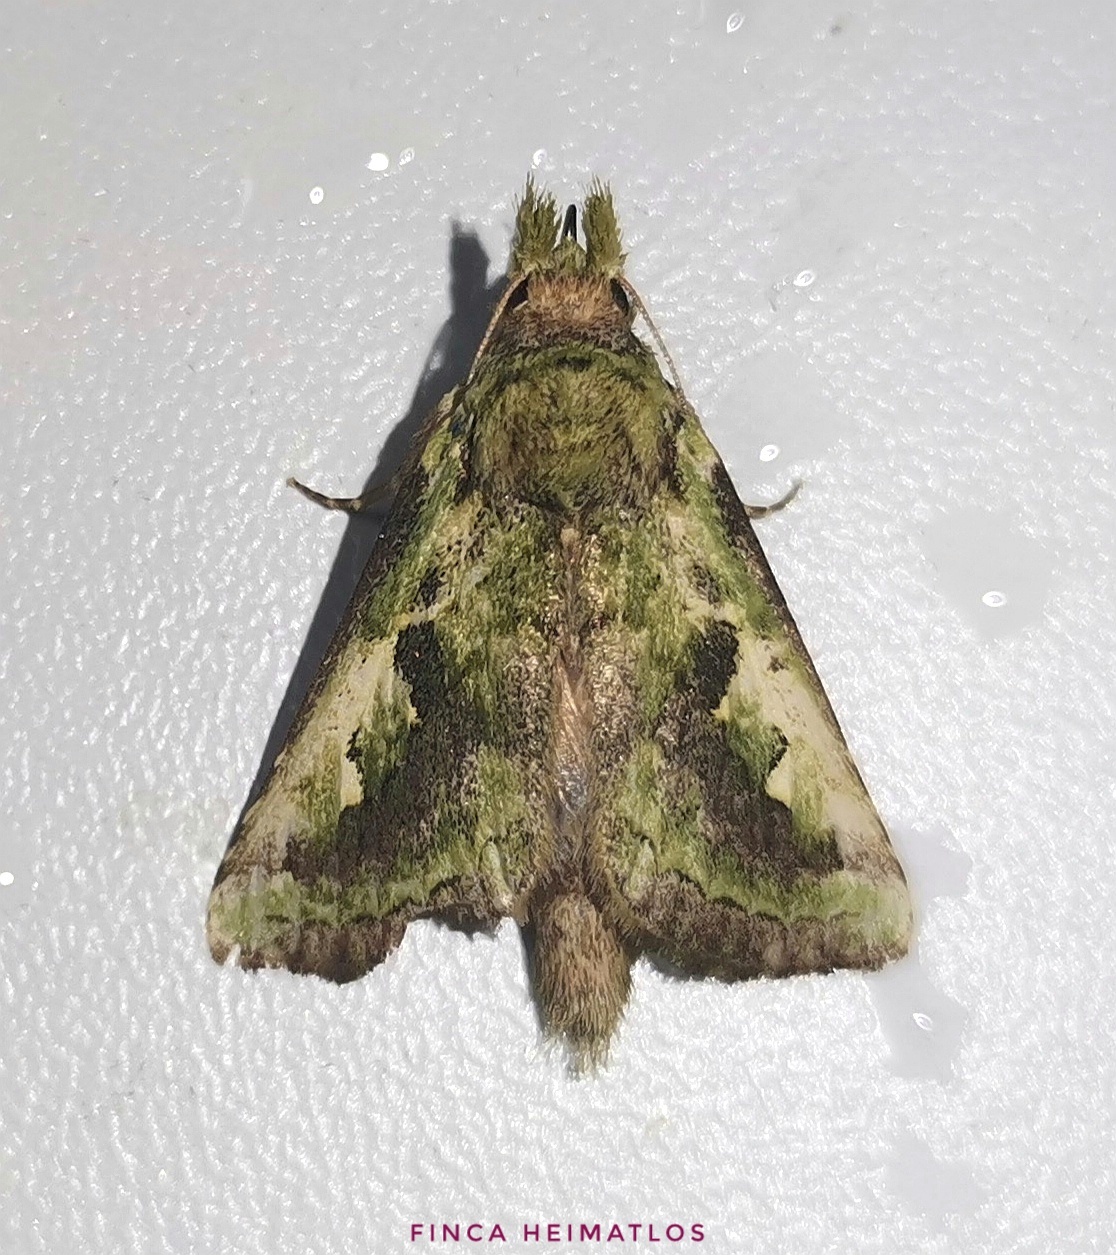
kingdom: Animalia
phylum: Arthropoda
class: Insecta
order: Lepidoptera
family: Notodontidae
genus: Lemairegisa
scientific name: Lemairegisa Lepasta viridis
